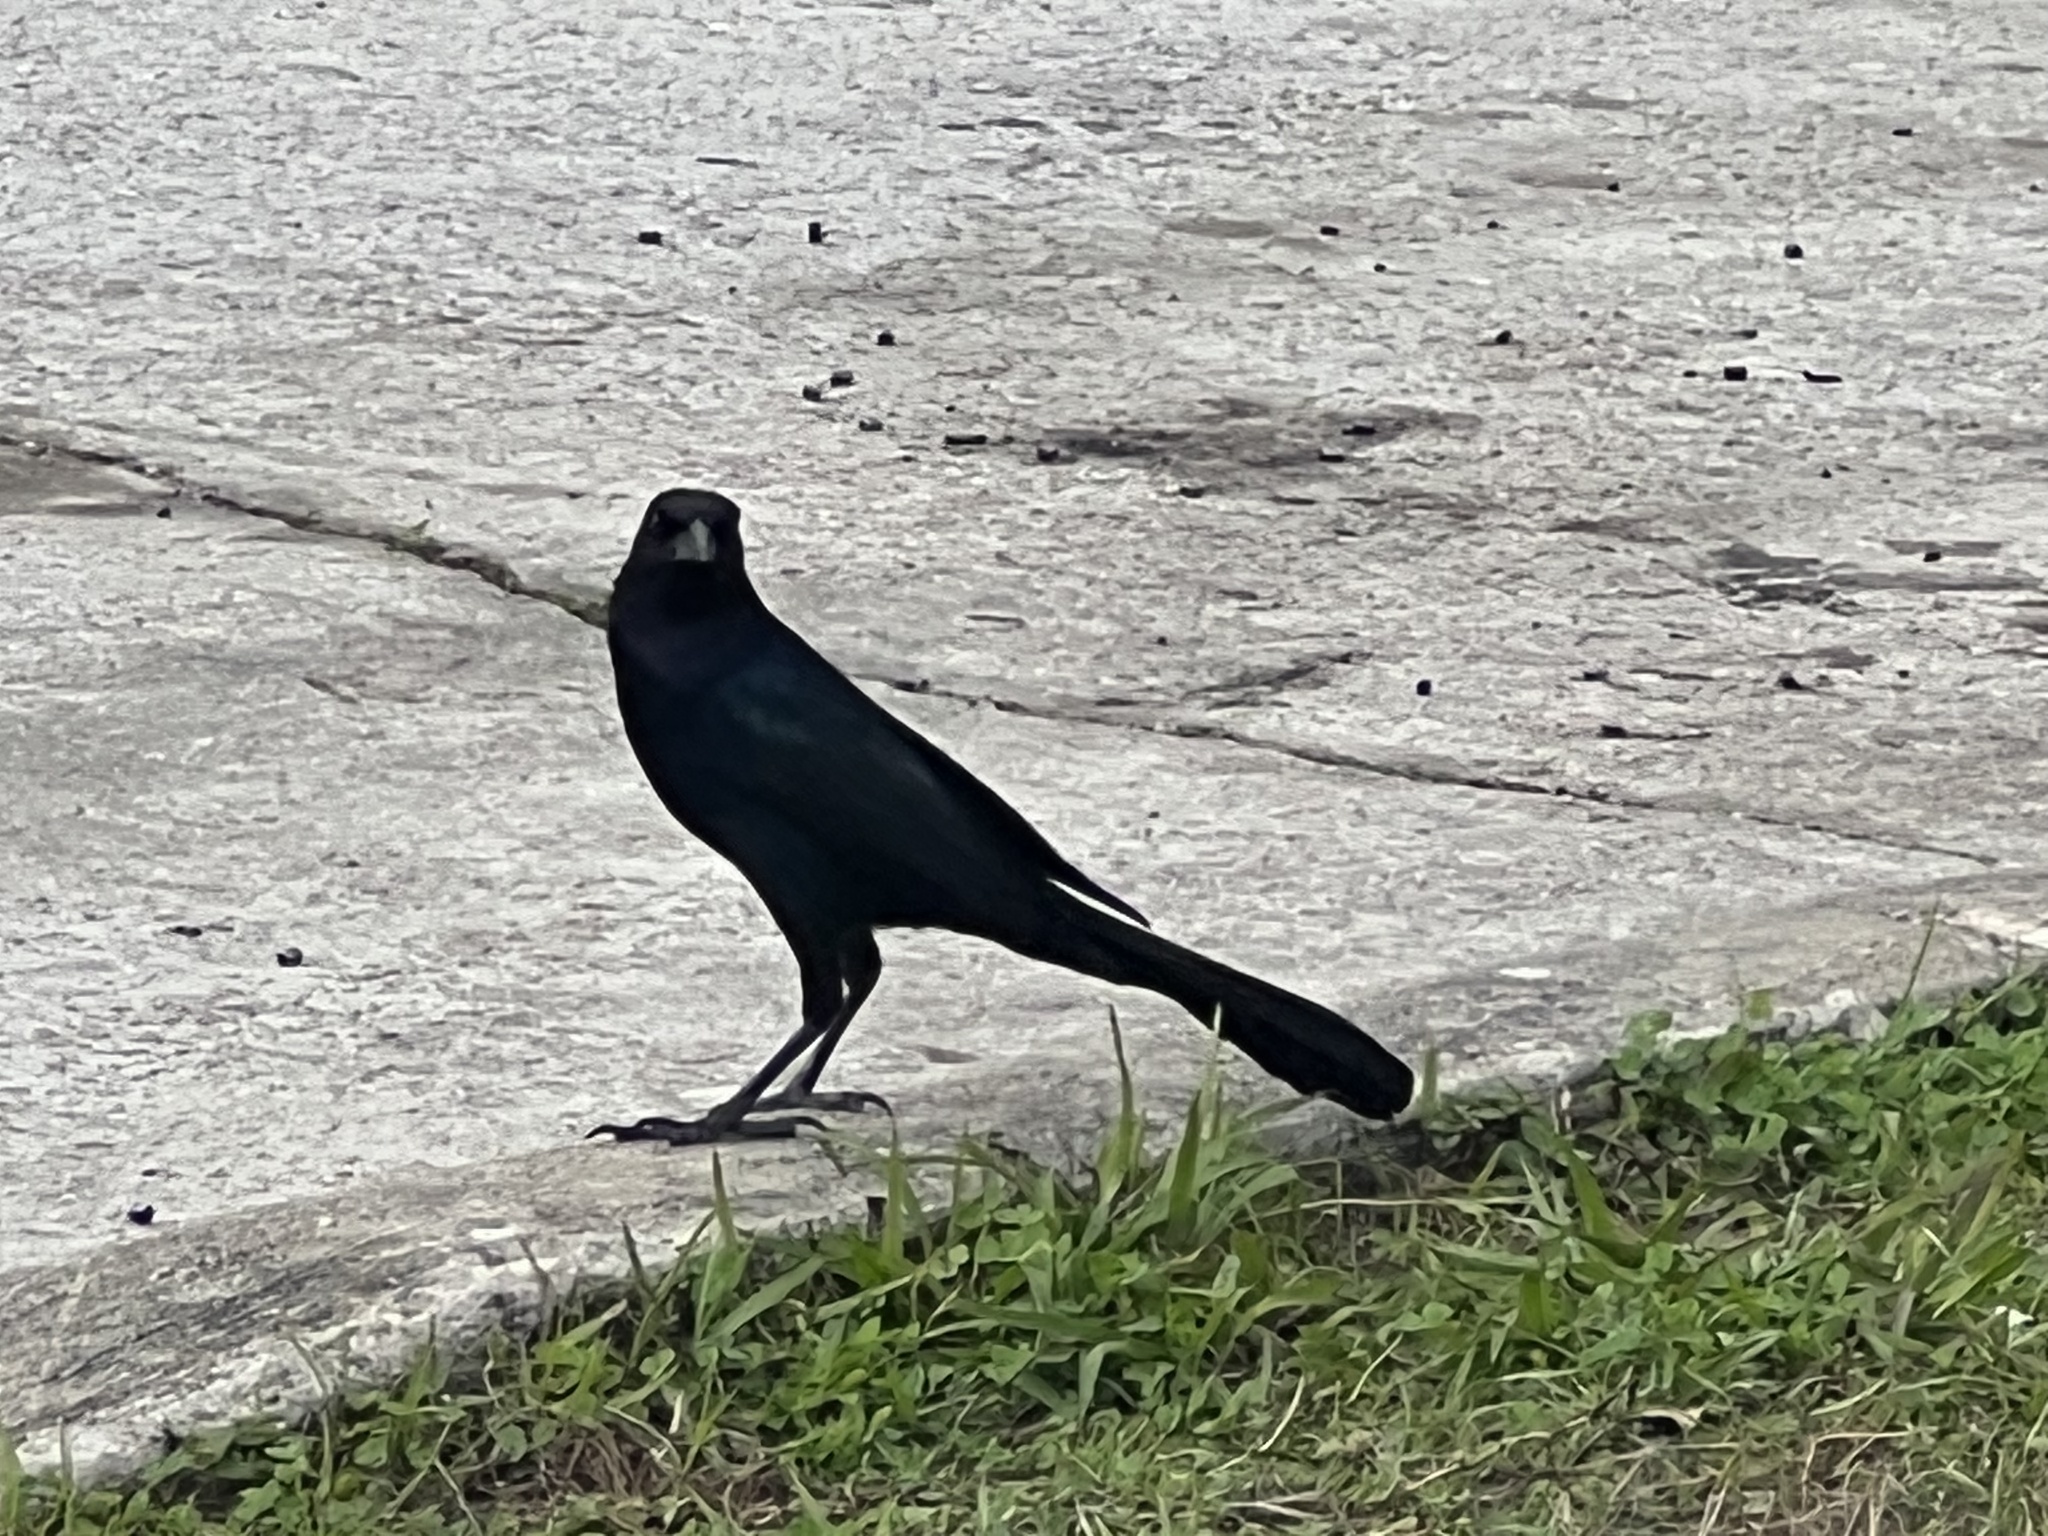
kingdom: Animalia
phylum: Chordata
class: Aves
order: Passeriformes
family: Icteridae
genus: Quiscalus
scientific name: Quiscalus major
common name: Boat-tailed grackle
